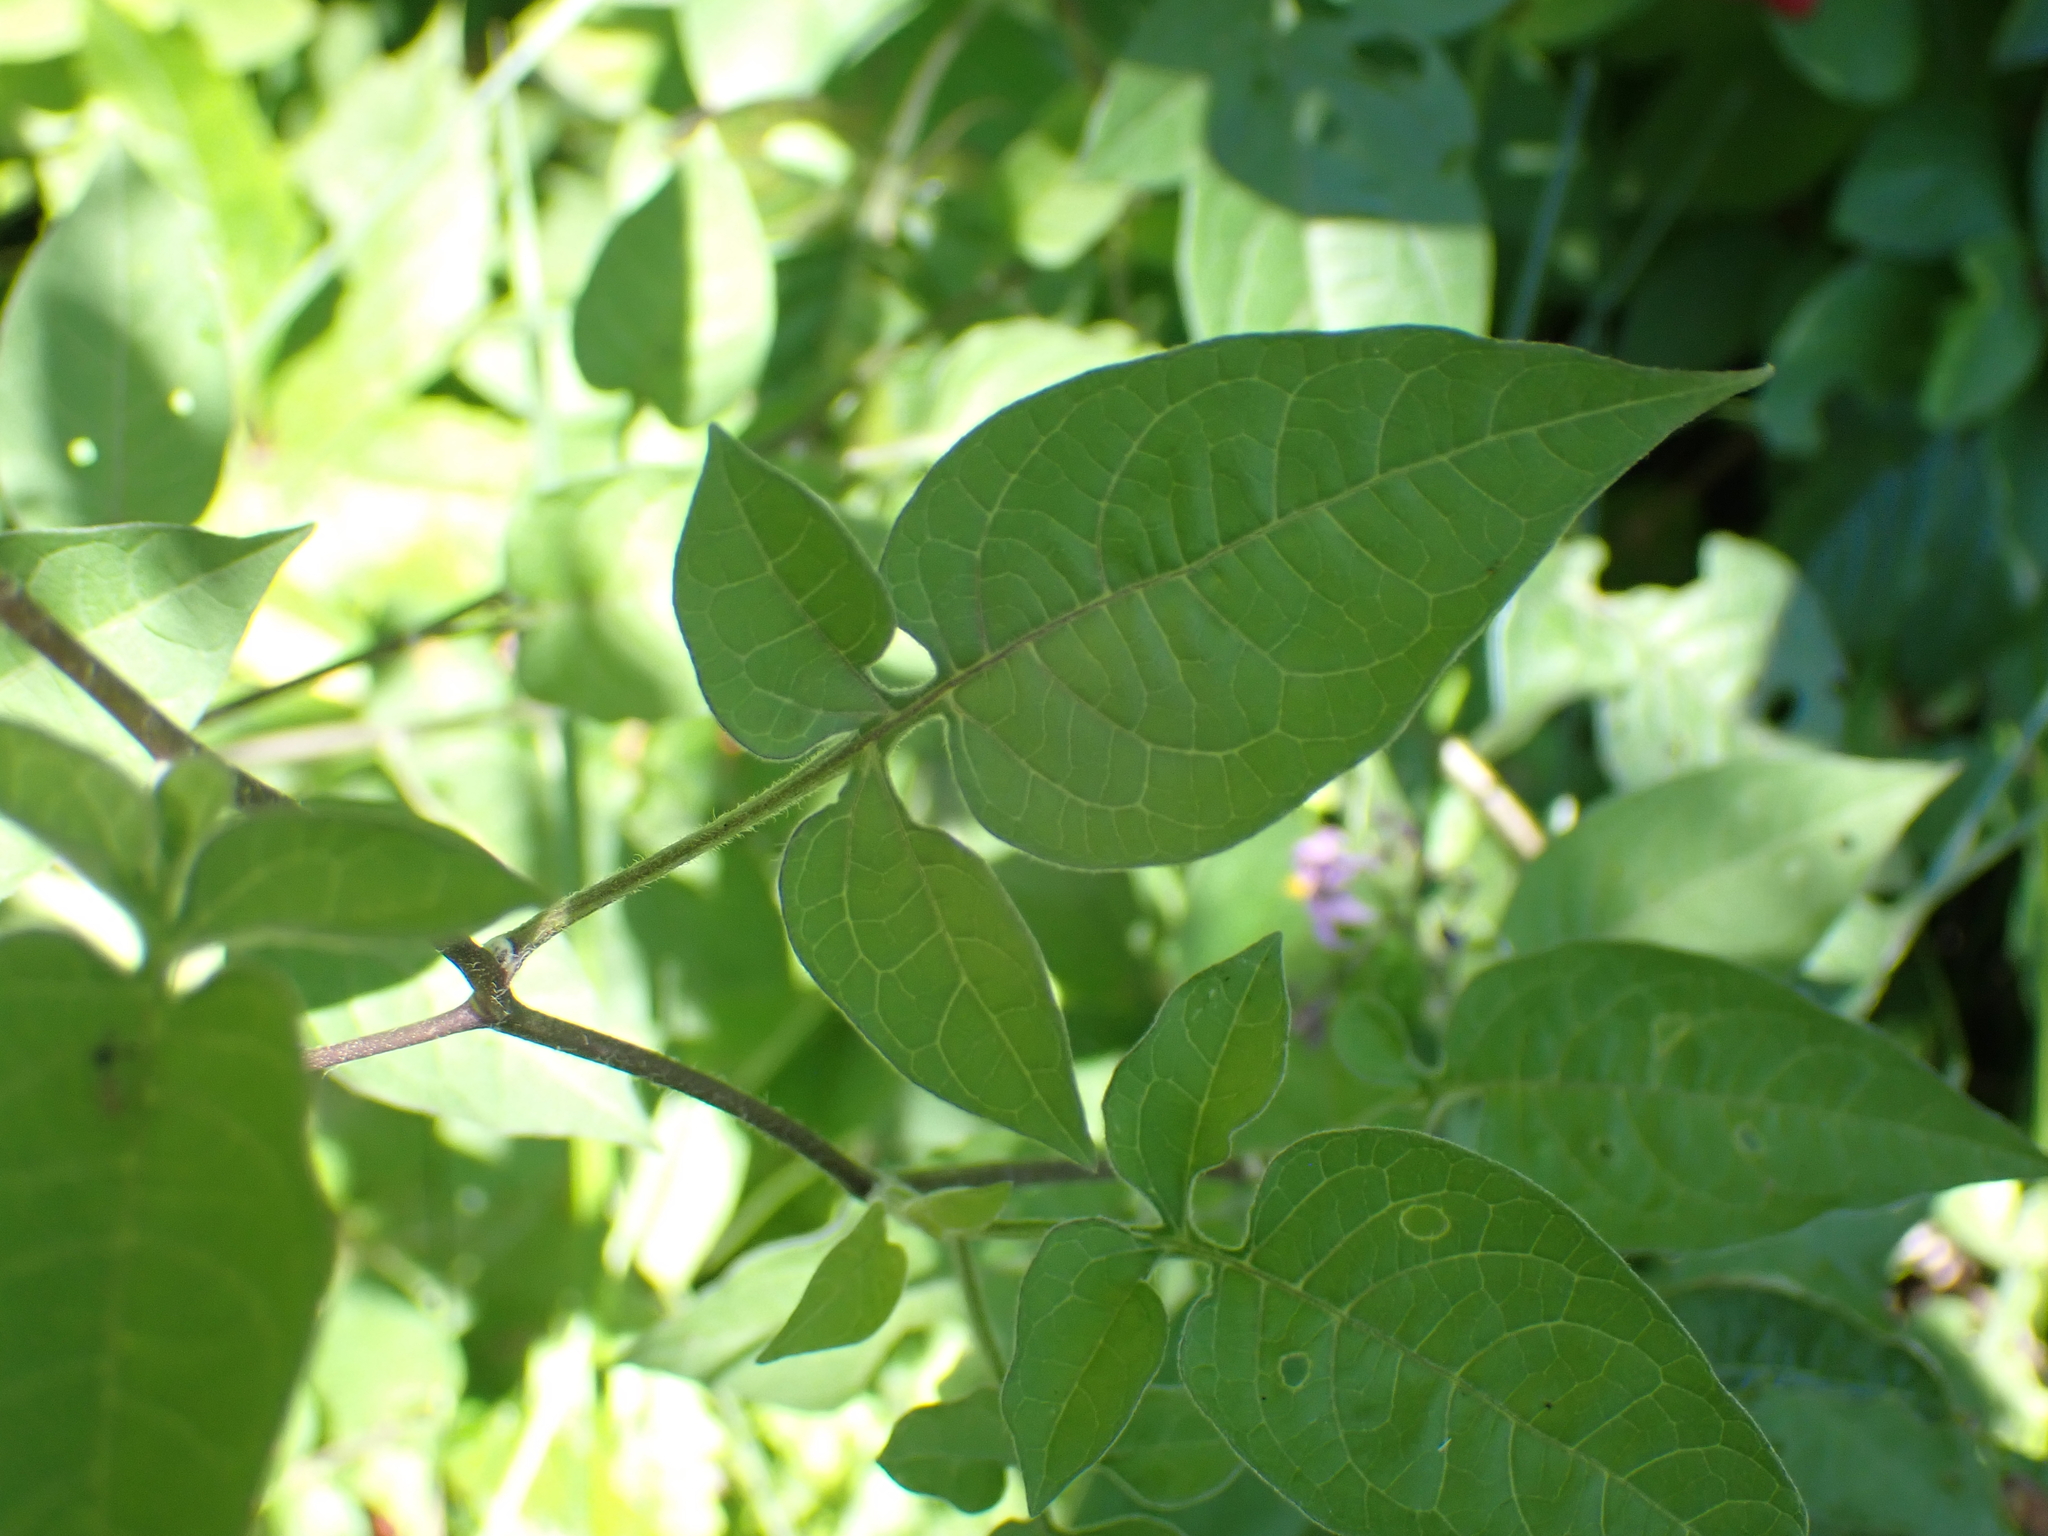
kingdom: Plantae
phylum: Tracheophyta
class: Magnoliopsida
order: Solanales
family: Solanaceae
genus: Solanum
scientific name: Solanum dulcamara
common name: Climbing nightshade
